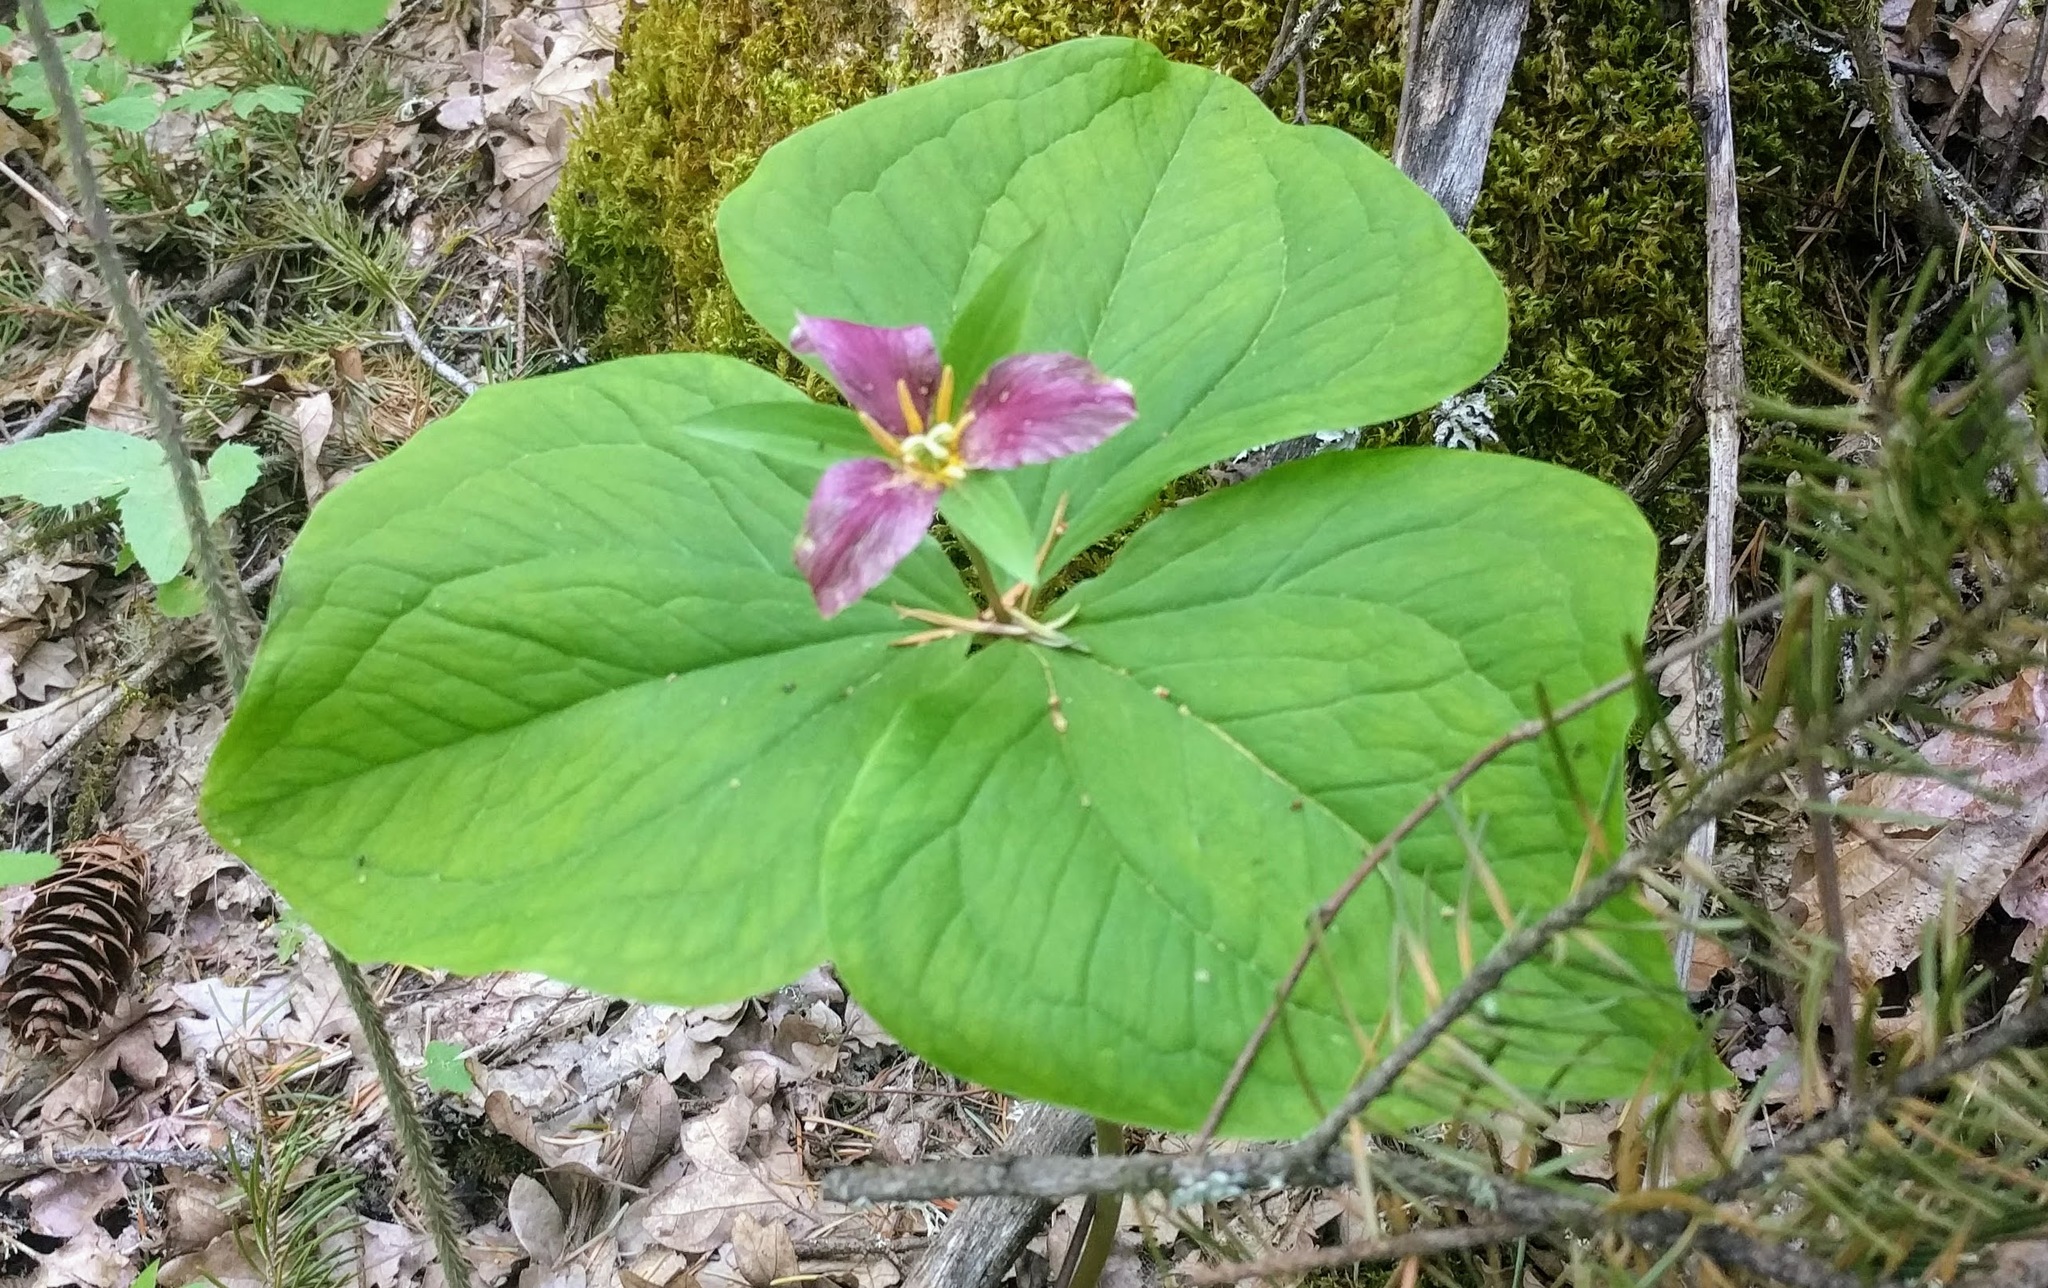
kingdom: Plantae
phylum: Tracheophyta
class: Liliopsida
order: Liliales
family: Melanthiaceae
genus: Trillium
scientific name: Trillium ovatum
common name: Pacific trillium
